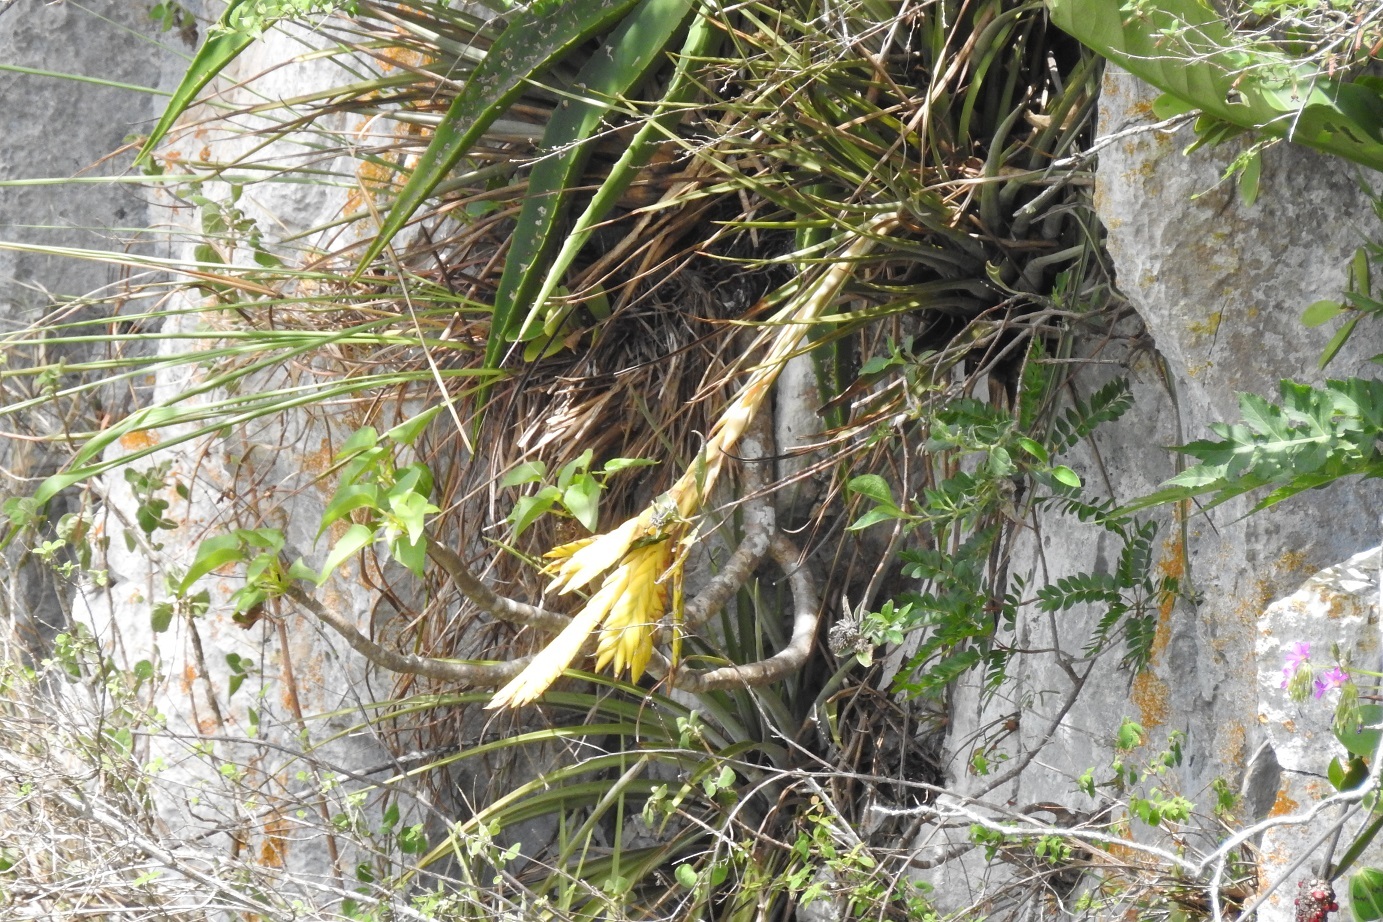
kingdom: Plantae
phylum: Tracheophyta
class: Liliopsida
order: Poales
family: Bromeliaceae
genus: Tillandsia
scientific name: Tillandsia fasciculata
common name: Giant airplant
